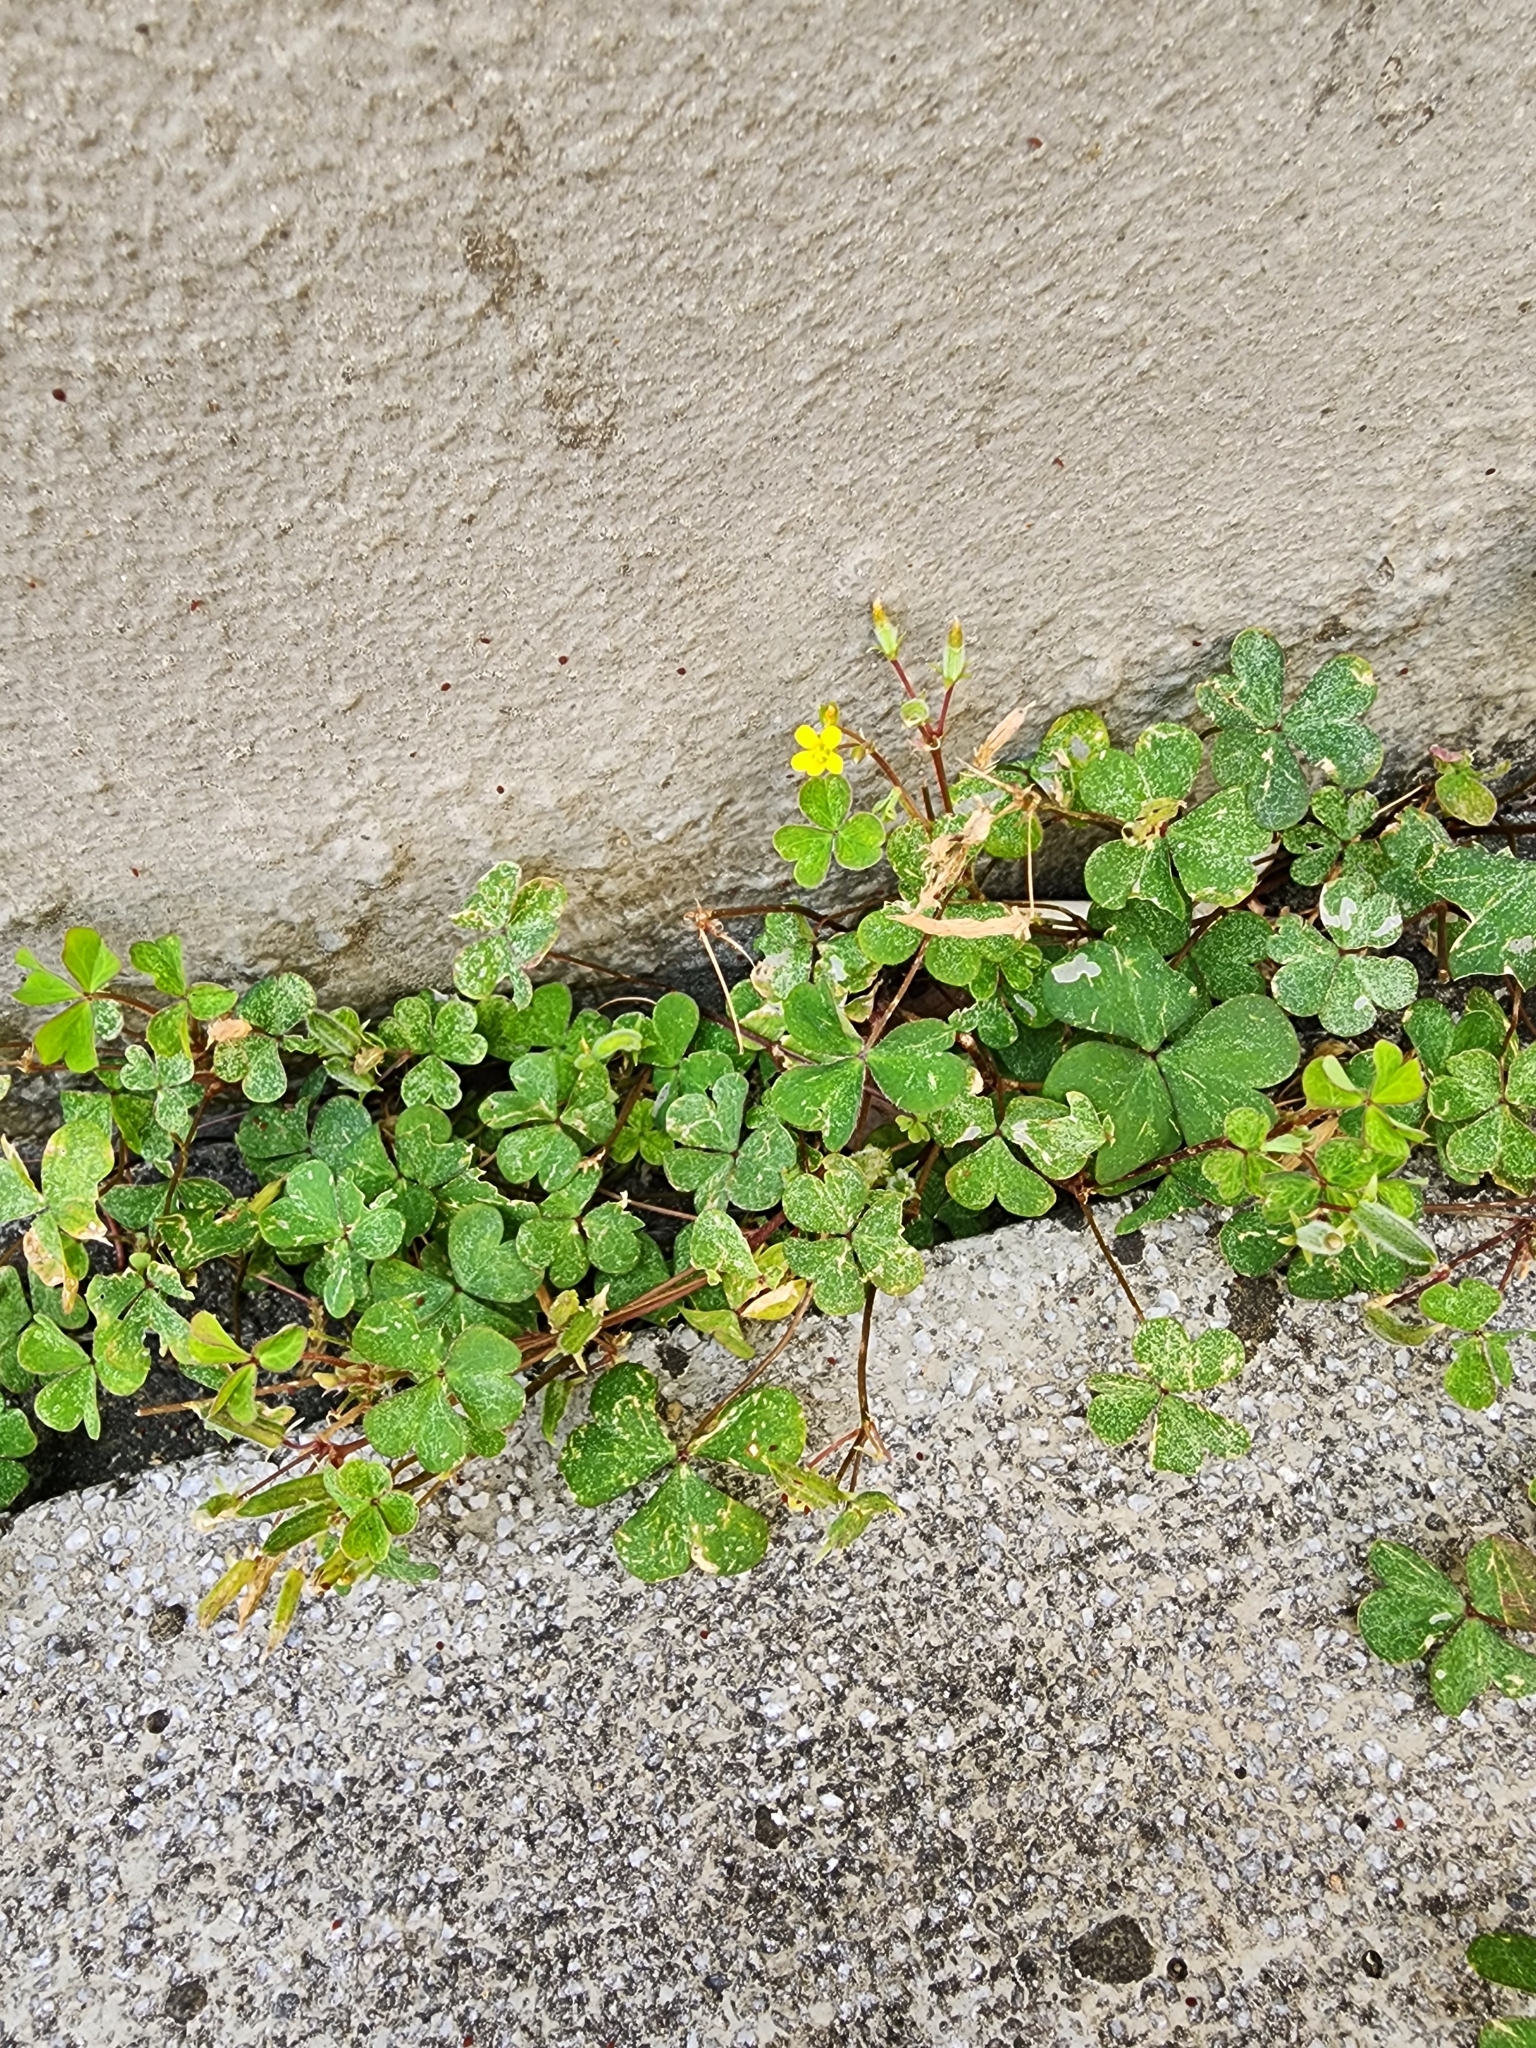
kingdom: Plantae
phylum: Tracheophyta
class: Magnoliopsida
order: Oxalidales
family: Oxalidaceae
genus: Oxalis
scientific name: Oxalis corniculata
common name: Procumbent yellow-sorrel
